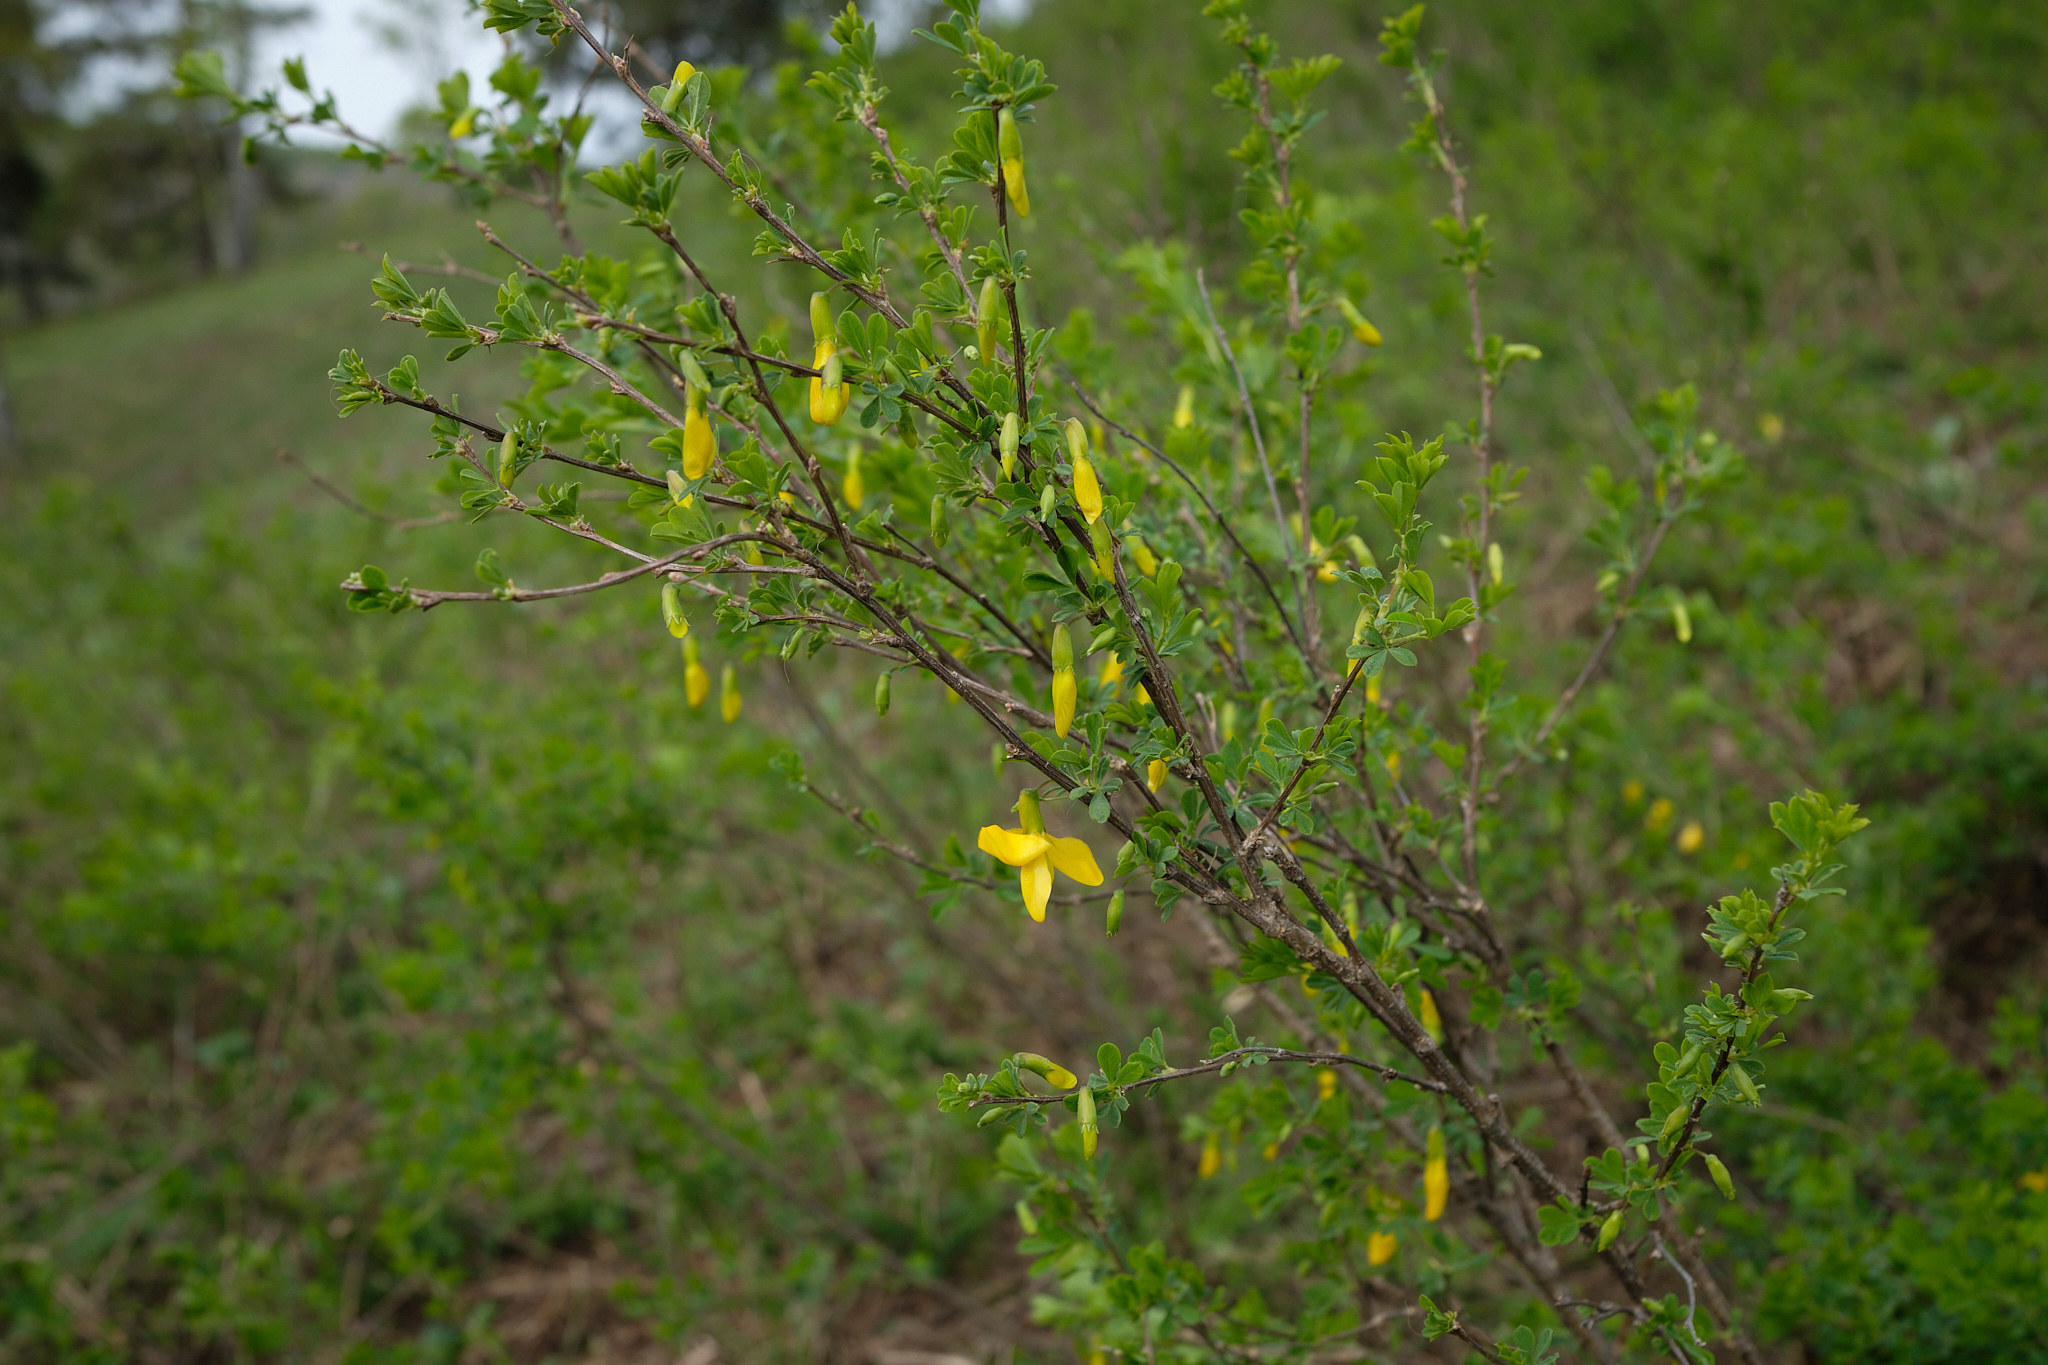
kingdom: Plantae
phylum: Tracheophyta
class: Magnoliopsida
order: Fabales
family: Fabaceae
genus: Chamaecytisus
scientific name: Chamaecytisus ruthenicus
